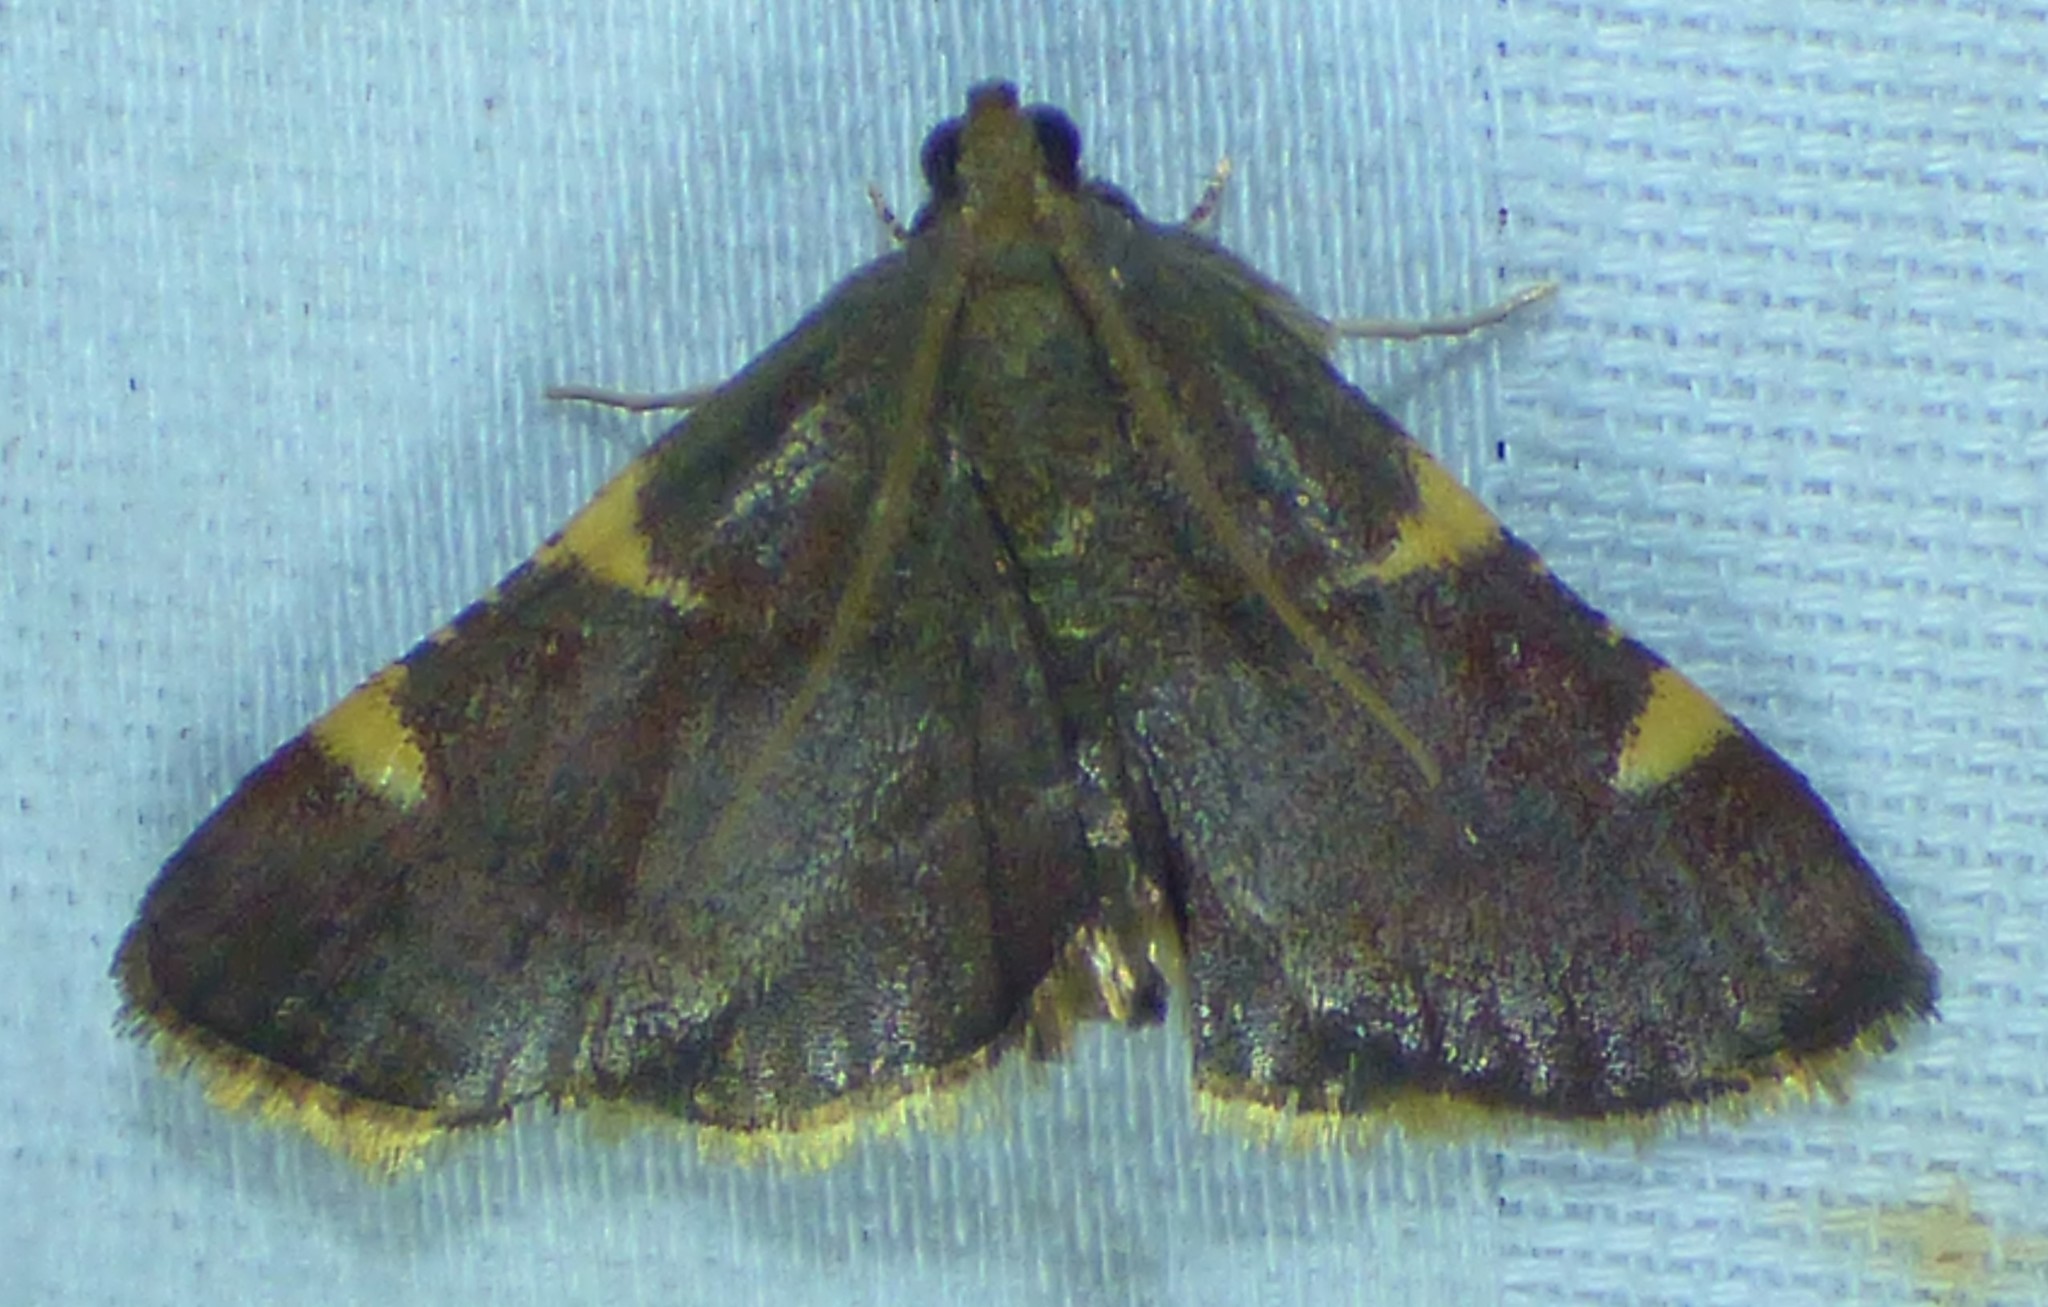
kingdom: Animalia
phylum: Arthropoda
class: Insecta
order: Lepidoptera
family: Pyralidae
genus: Hypsopygia
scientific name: Hypsopygia olinalis
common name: Yellow-fringed dolichomia moth
